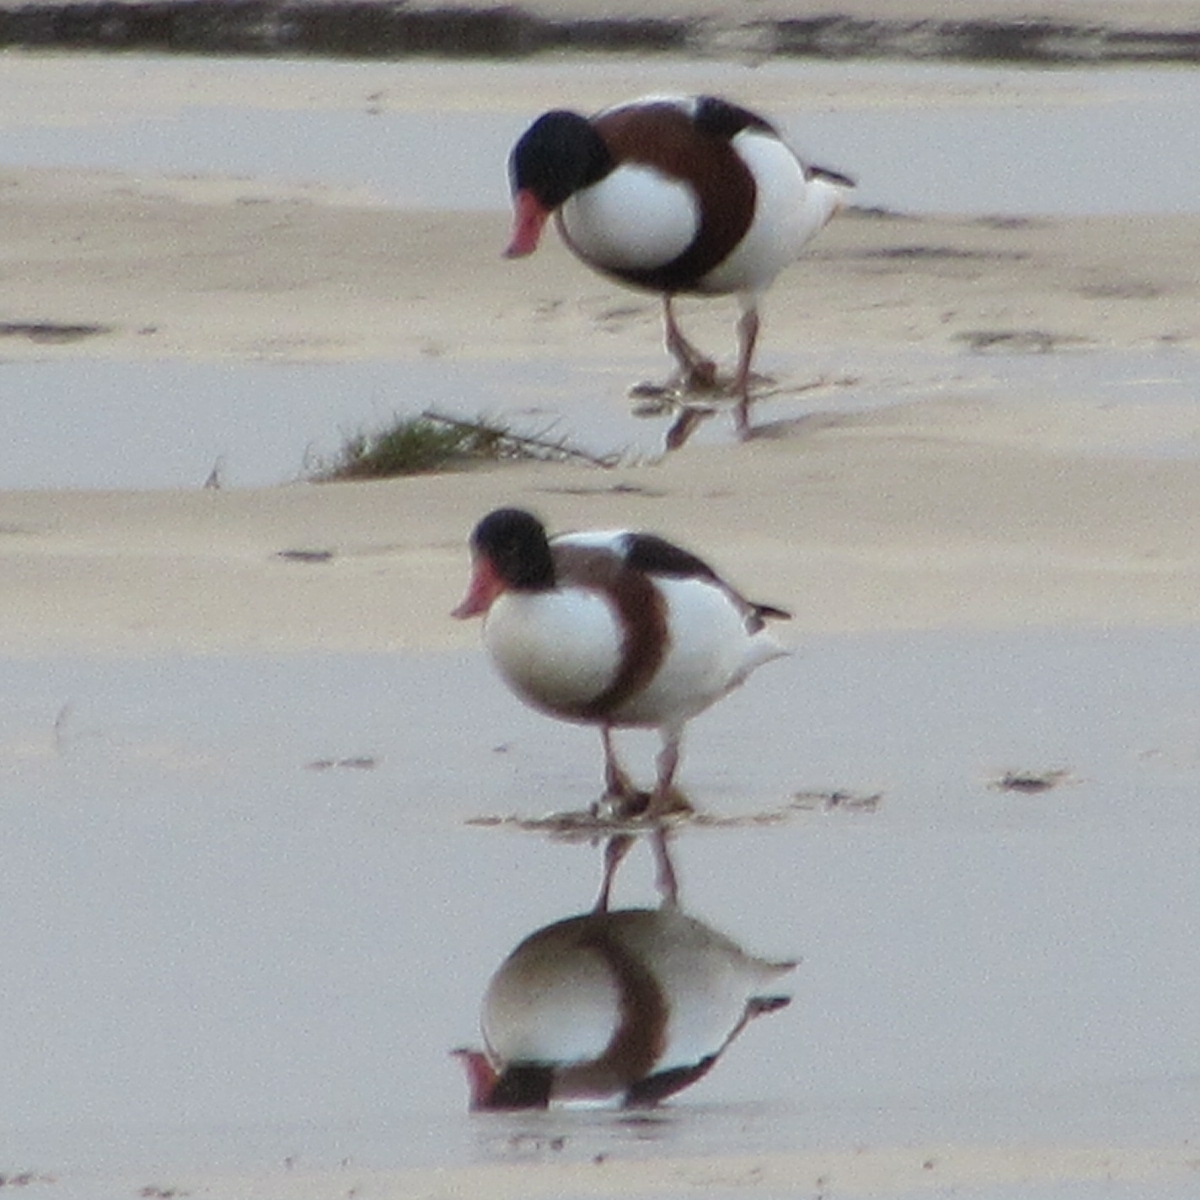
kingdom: Animalia
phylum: Chordata
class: Aves
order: Anseriformes
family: Anatidae
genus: Tadorna
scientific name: Tadorna tadorna
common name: Common shelduck
